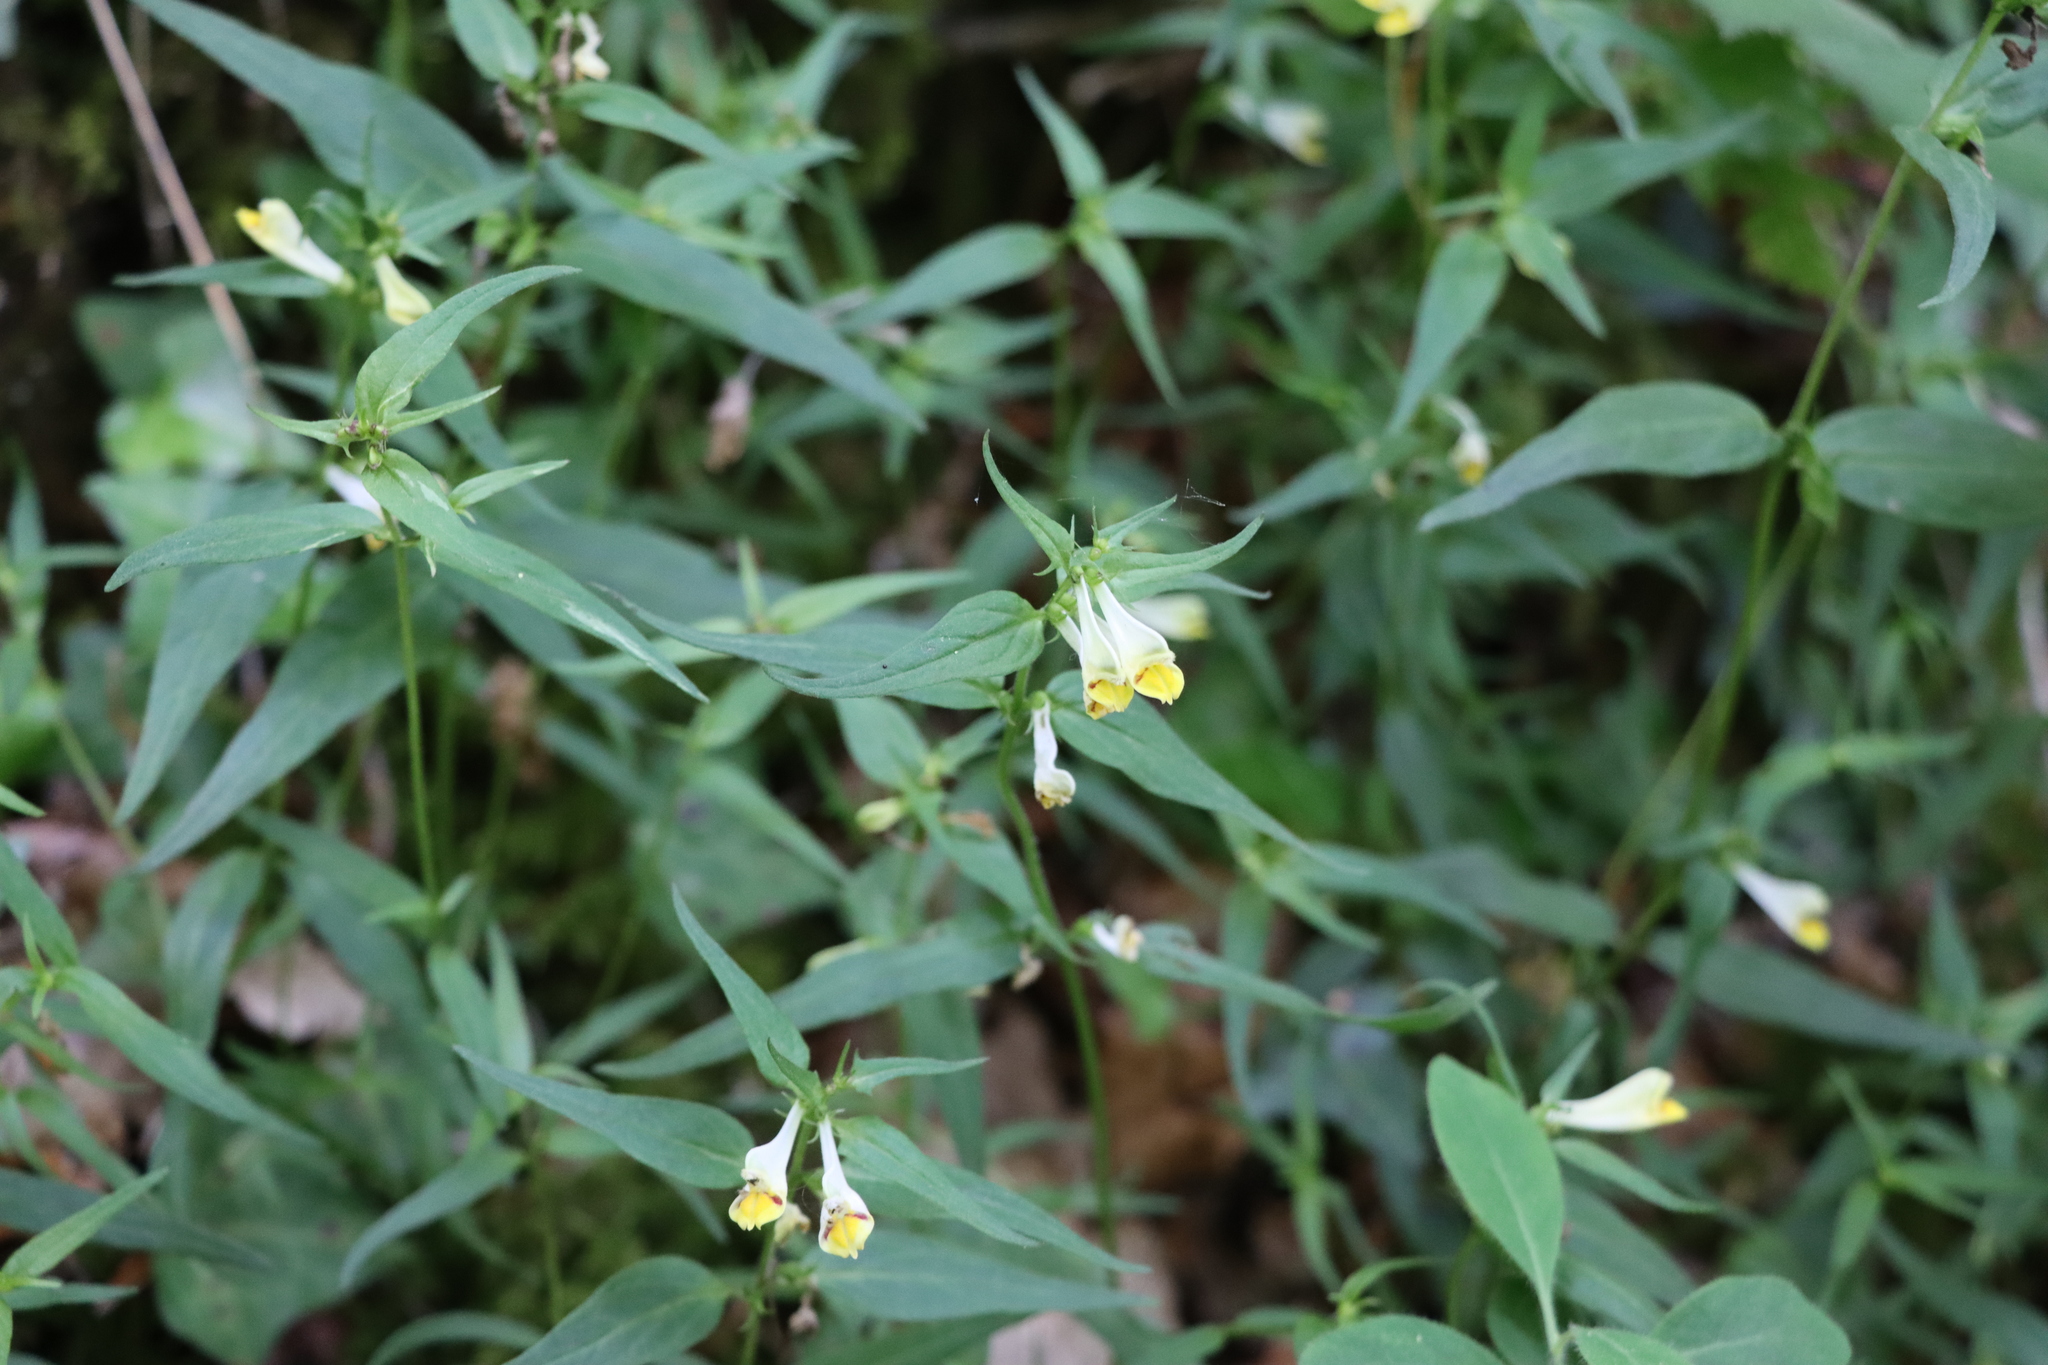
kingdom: Plantae
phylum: Tracheophyta
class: Magnoliopsida
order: Lamiales
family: Orobanchaceae
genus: Melampyrum
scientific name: Melampyrum pratense
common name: Common cow-wheat
